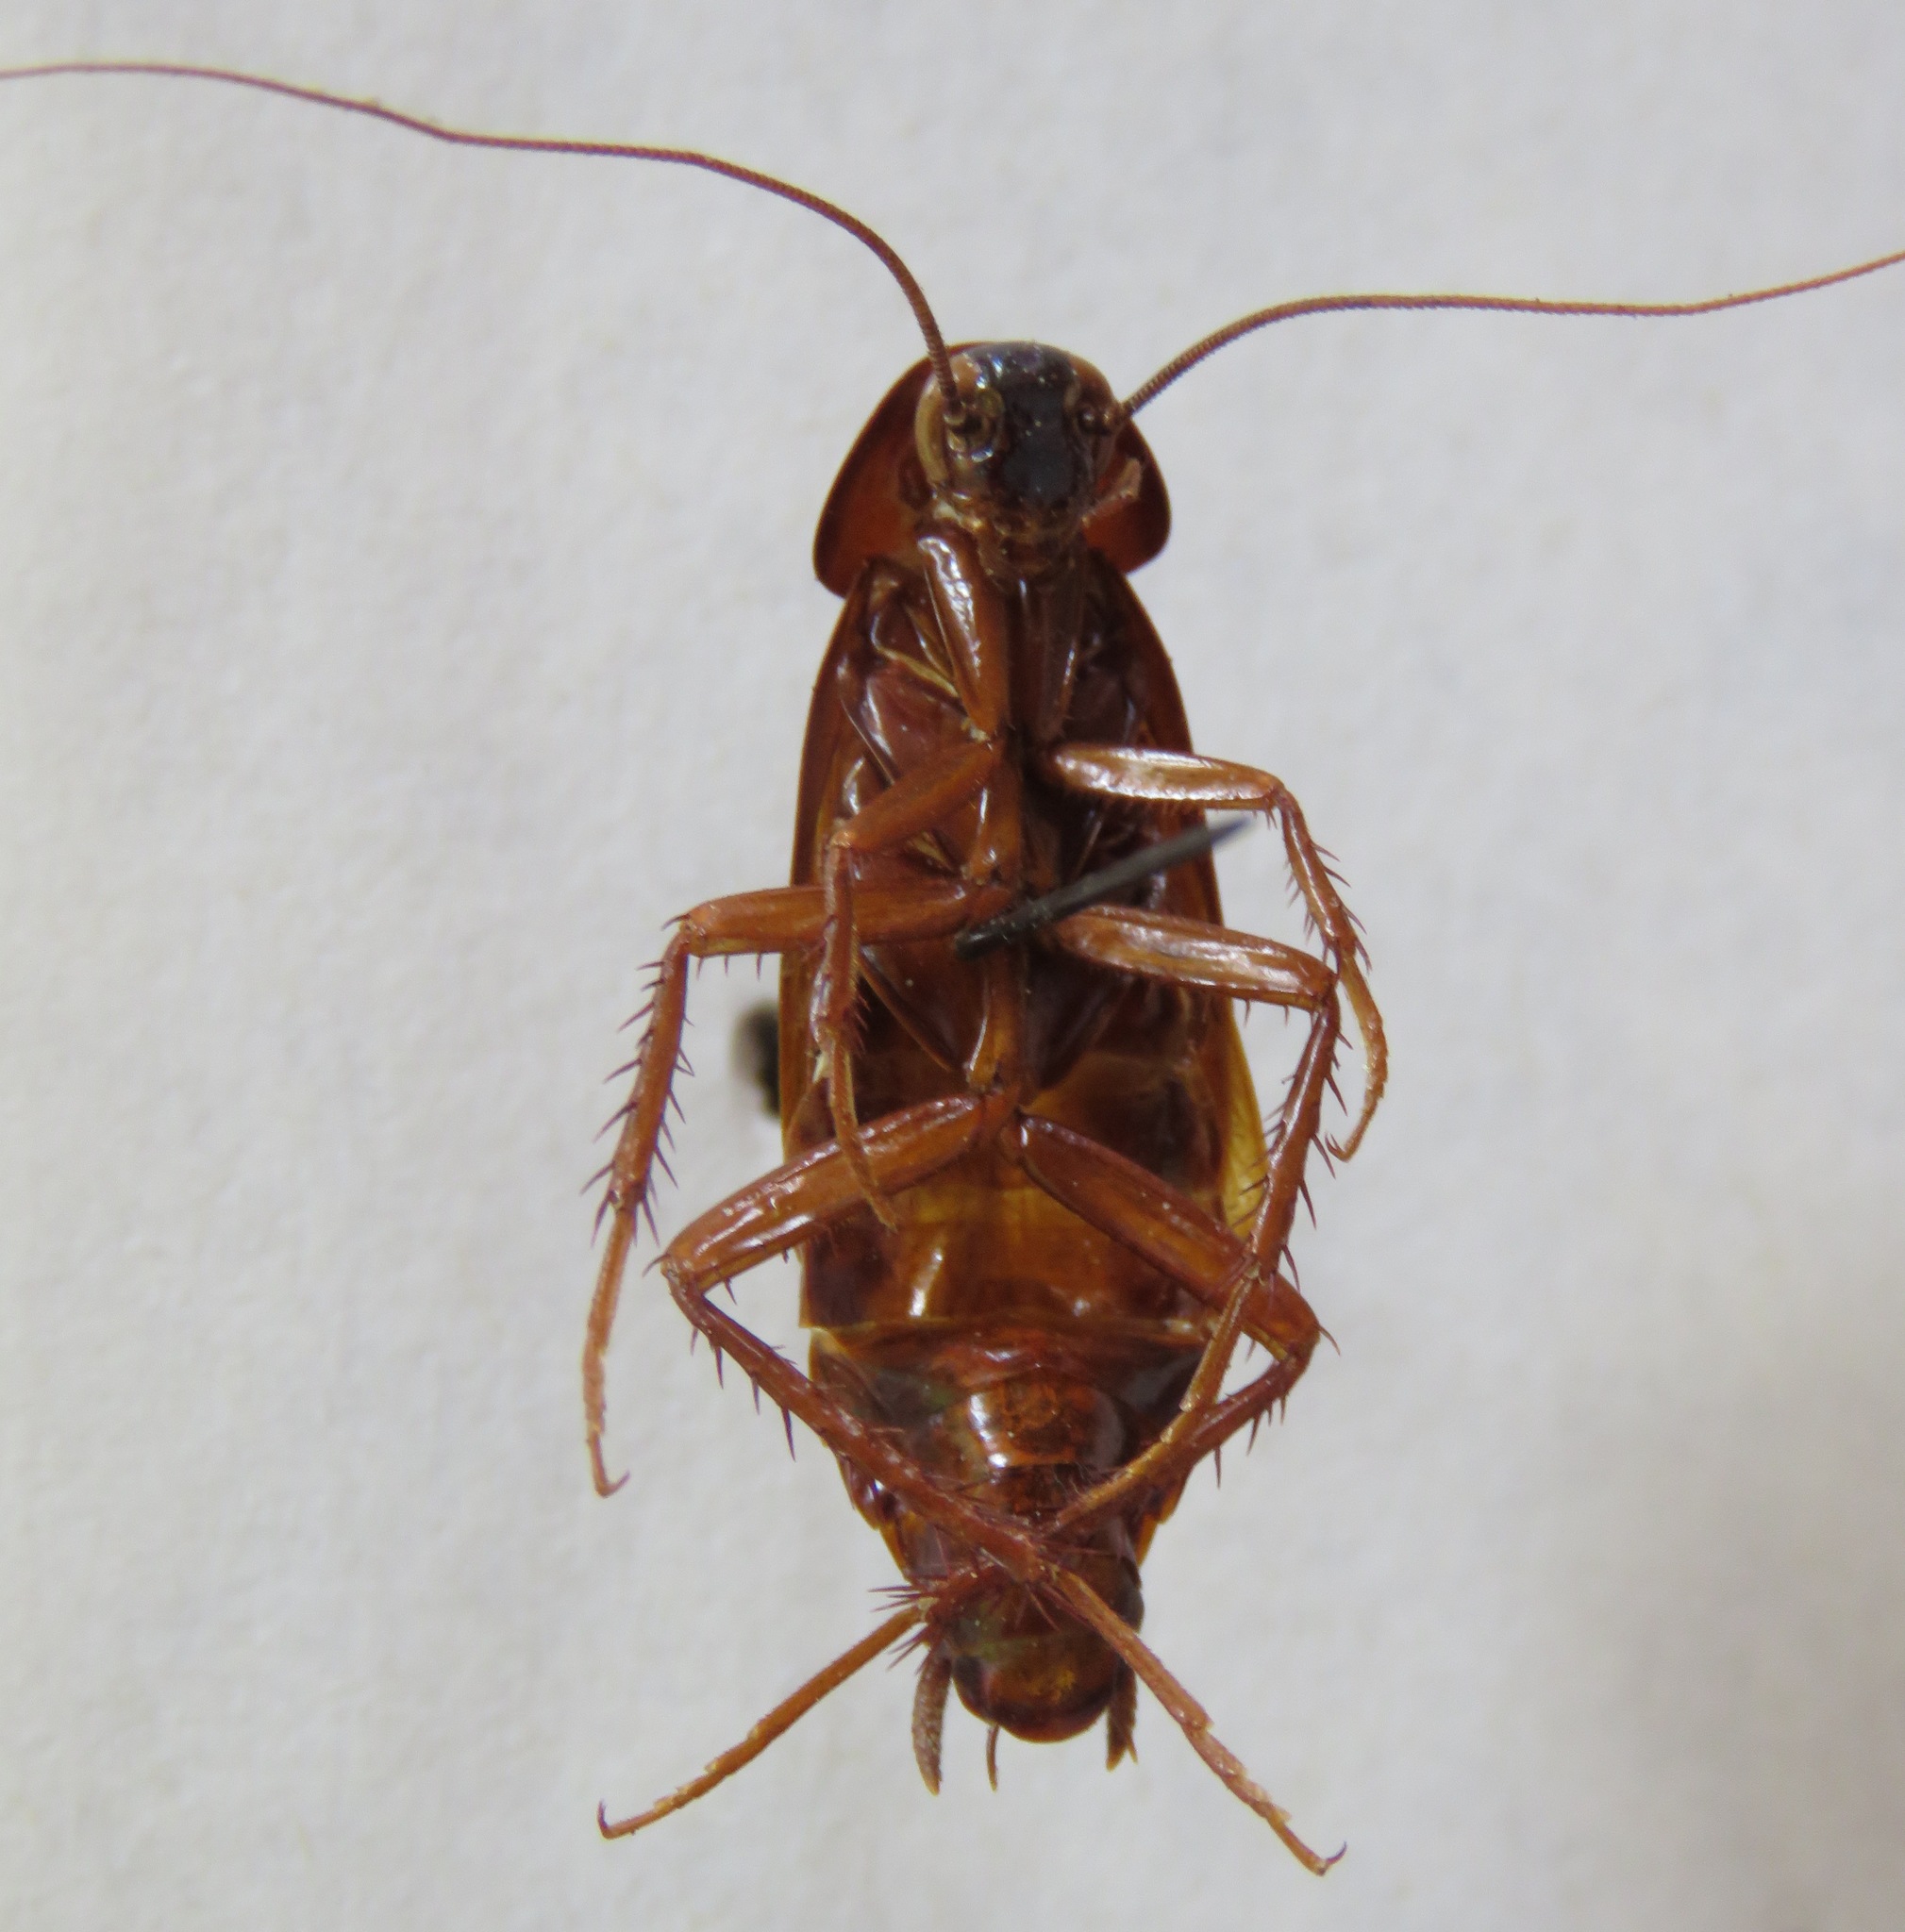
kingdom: Animalia
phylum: Arthropoda
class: Insecta
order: Blattodea
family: Blattidae
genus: Blatta
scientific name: Blatta orientalis
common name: Oriental cockroach
